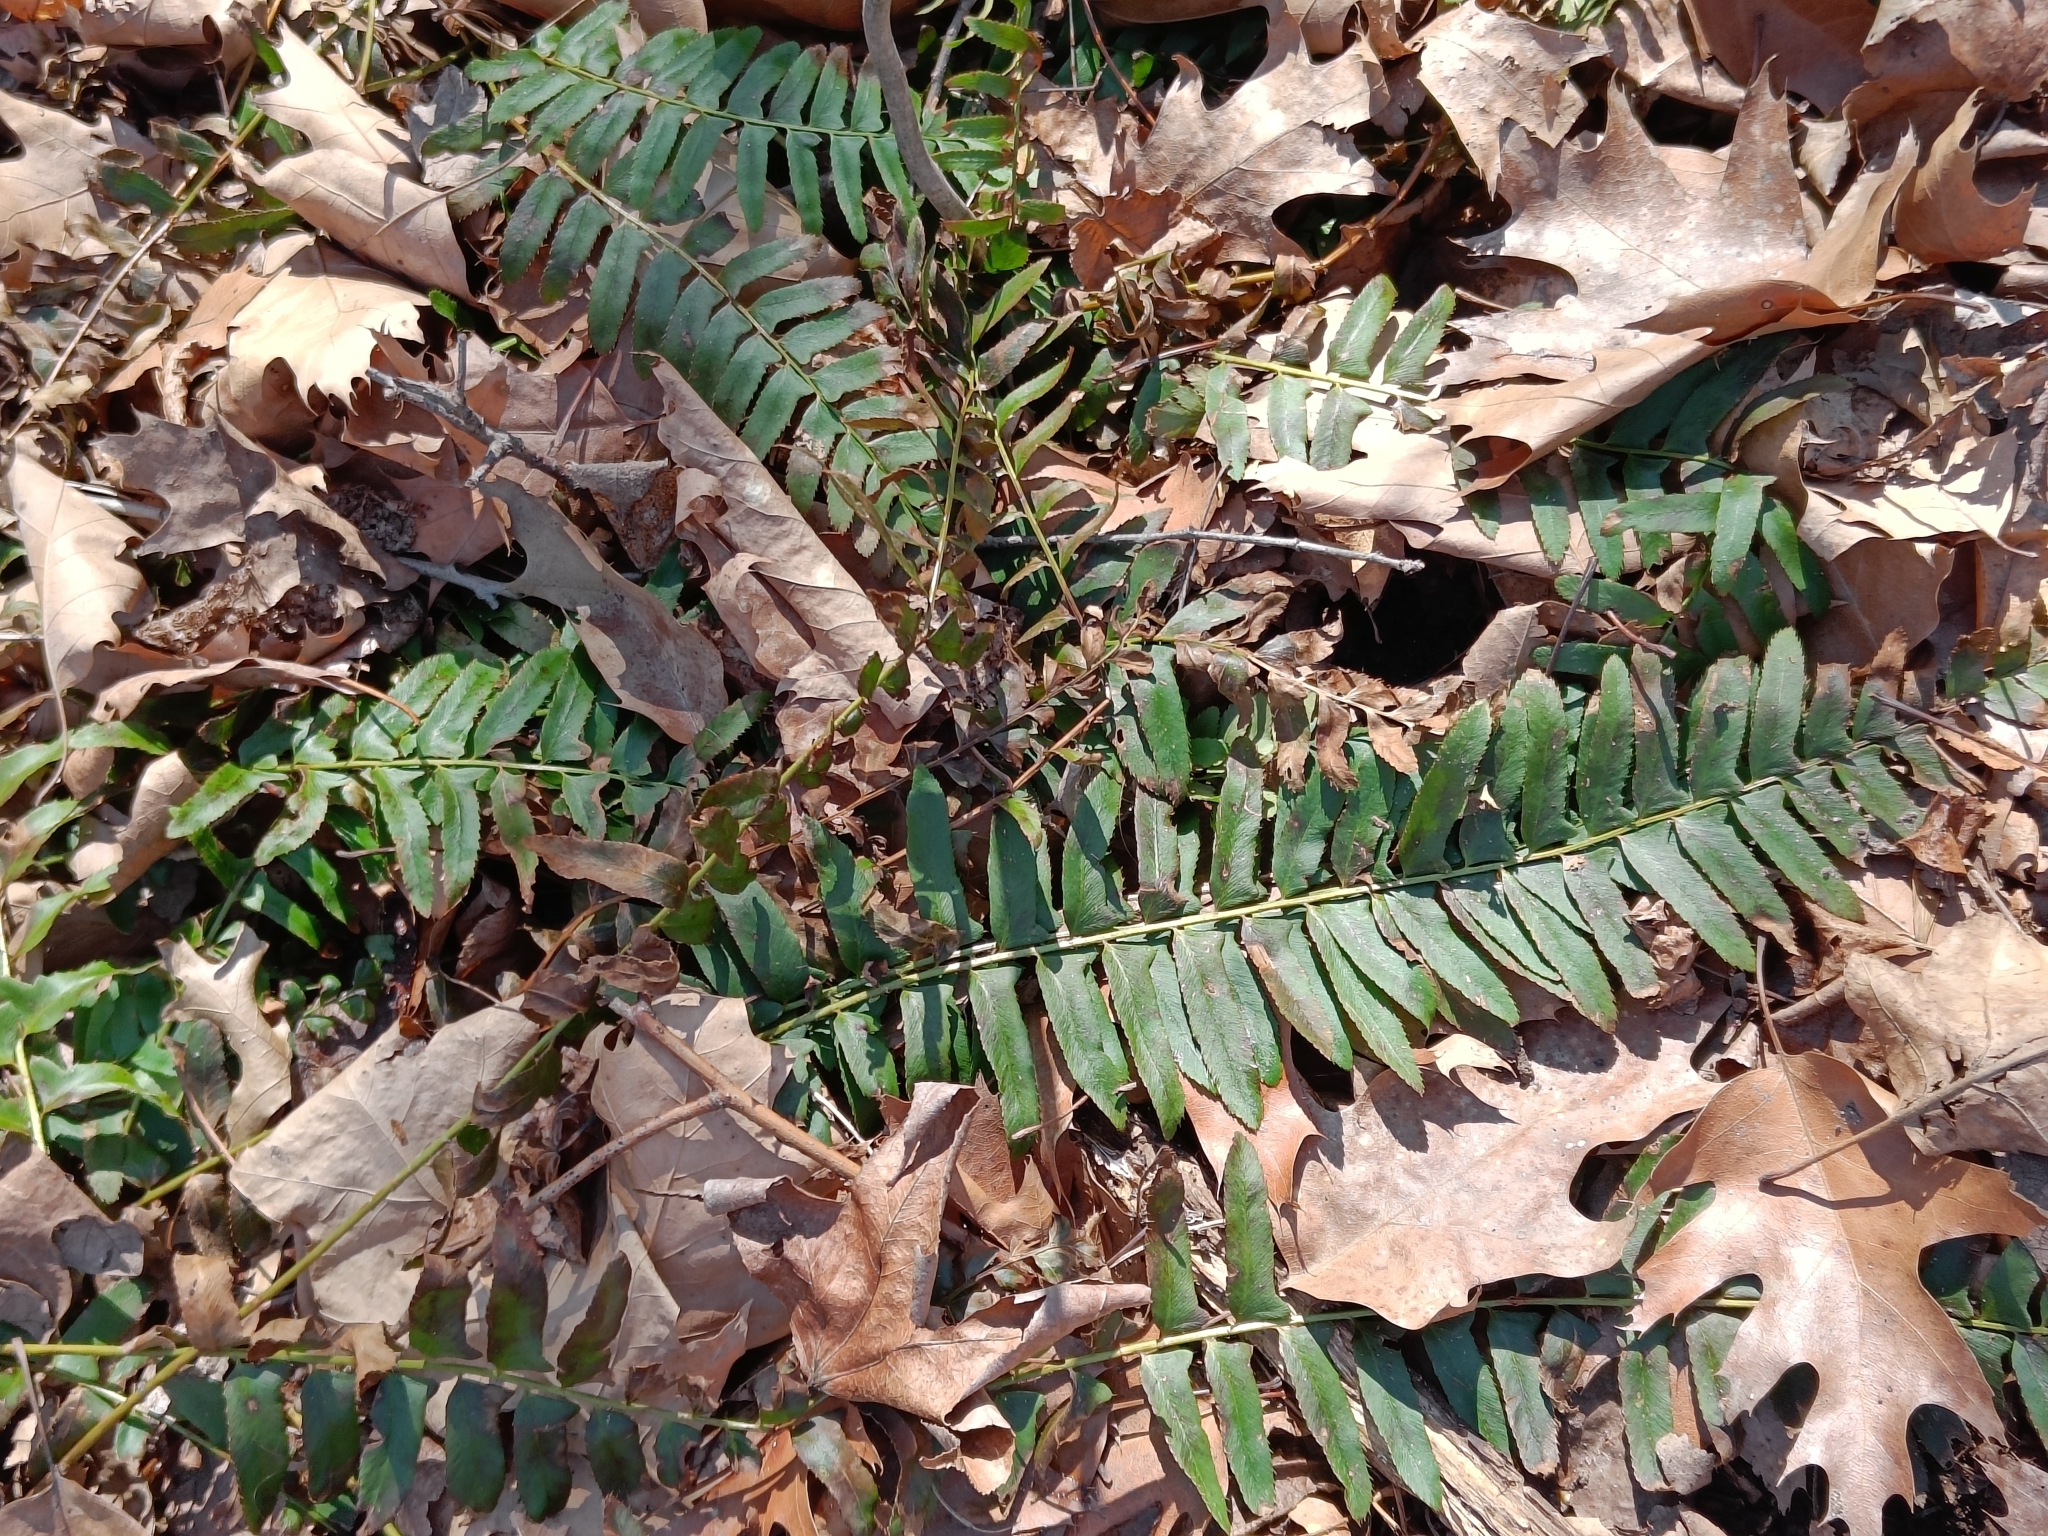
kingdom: Plantae
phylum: Tracheophyta
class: Polypodiopsida
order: Polypodiales
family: Dryopteridaceae
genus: Polystichum
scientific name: Polystichum acrostichoides
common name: Christmas fern
